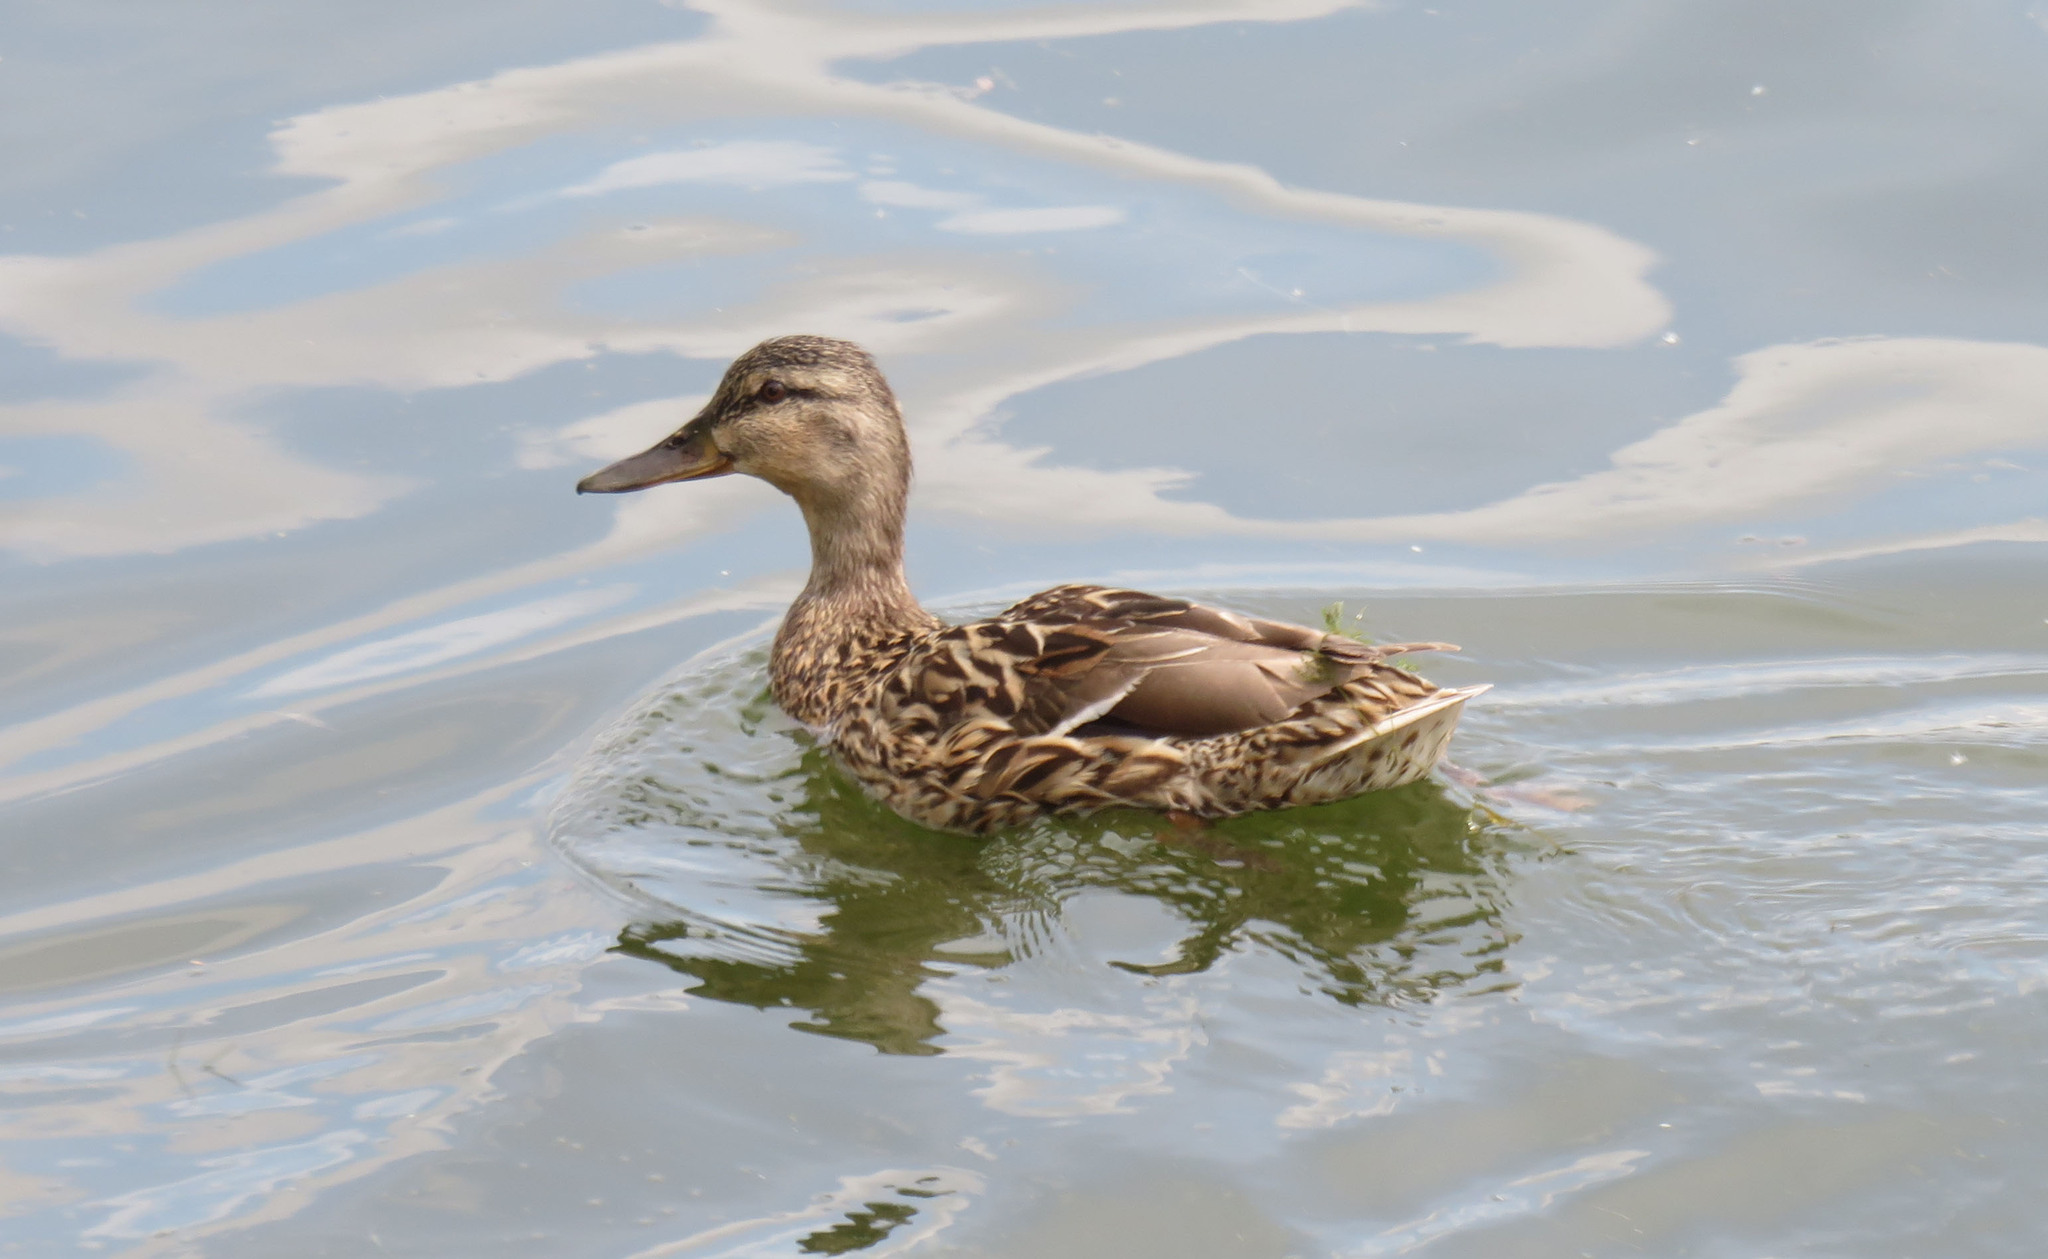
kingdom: Animalia
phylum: Chordata
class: Aves
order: Anseriformes
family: Anatidae
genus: Anas
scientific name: Anas platyrhynchos
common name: Mallard
